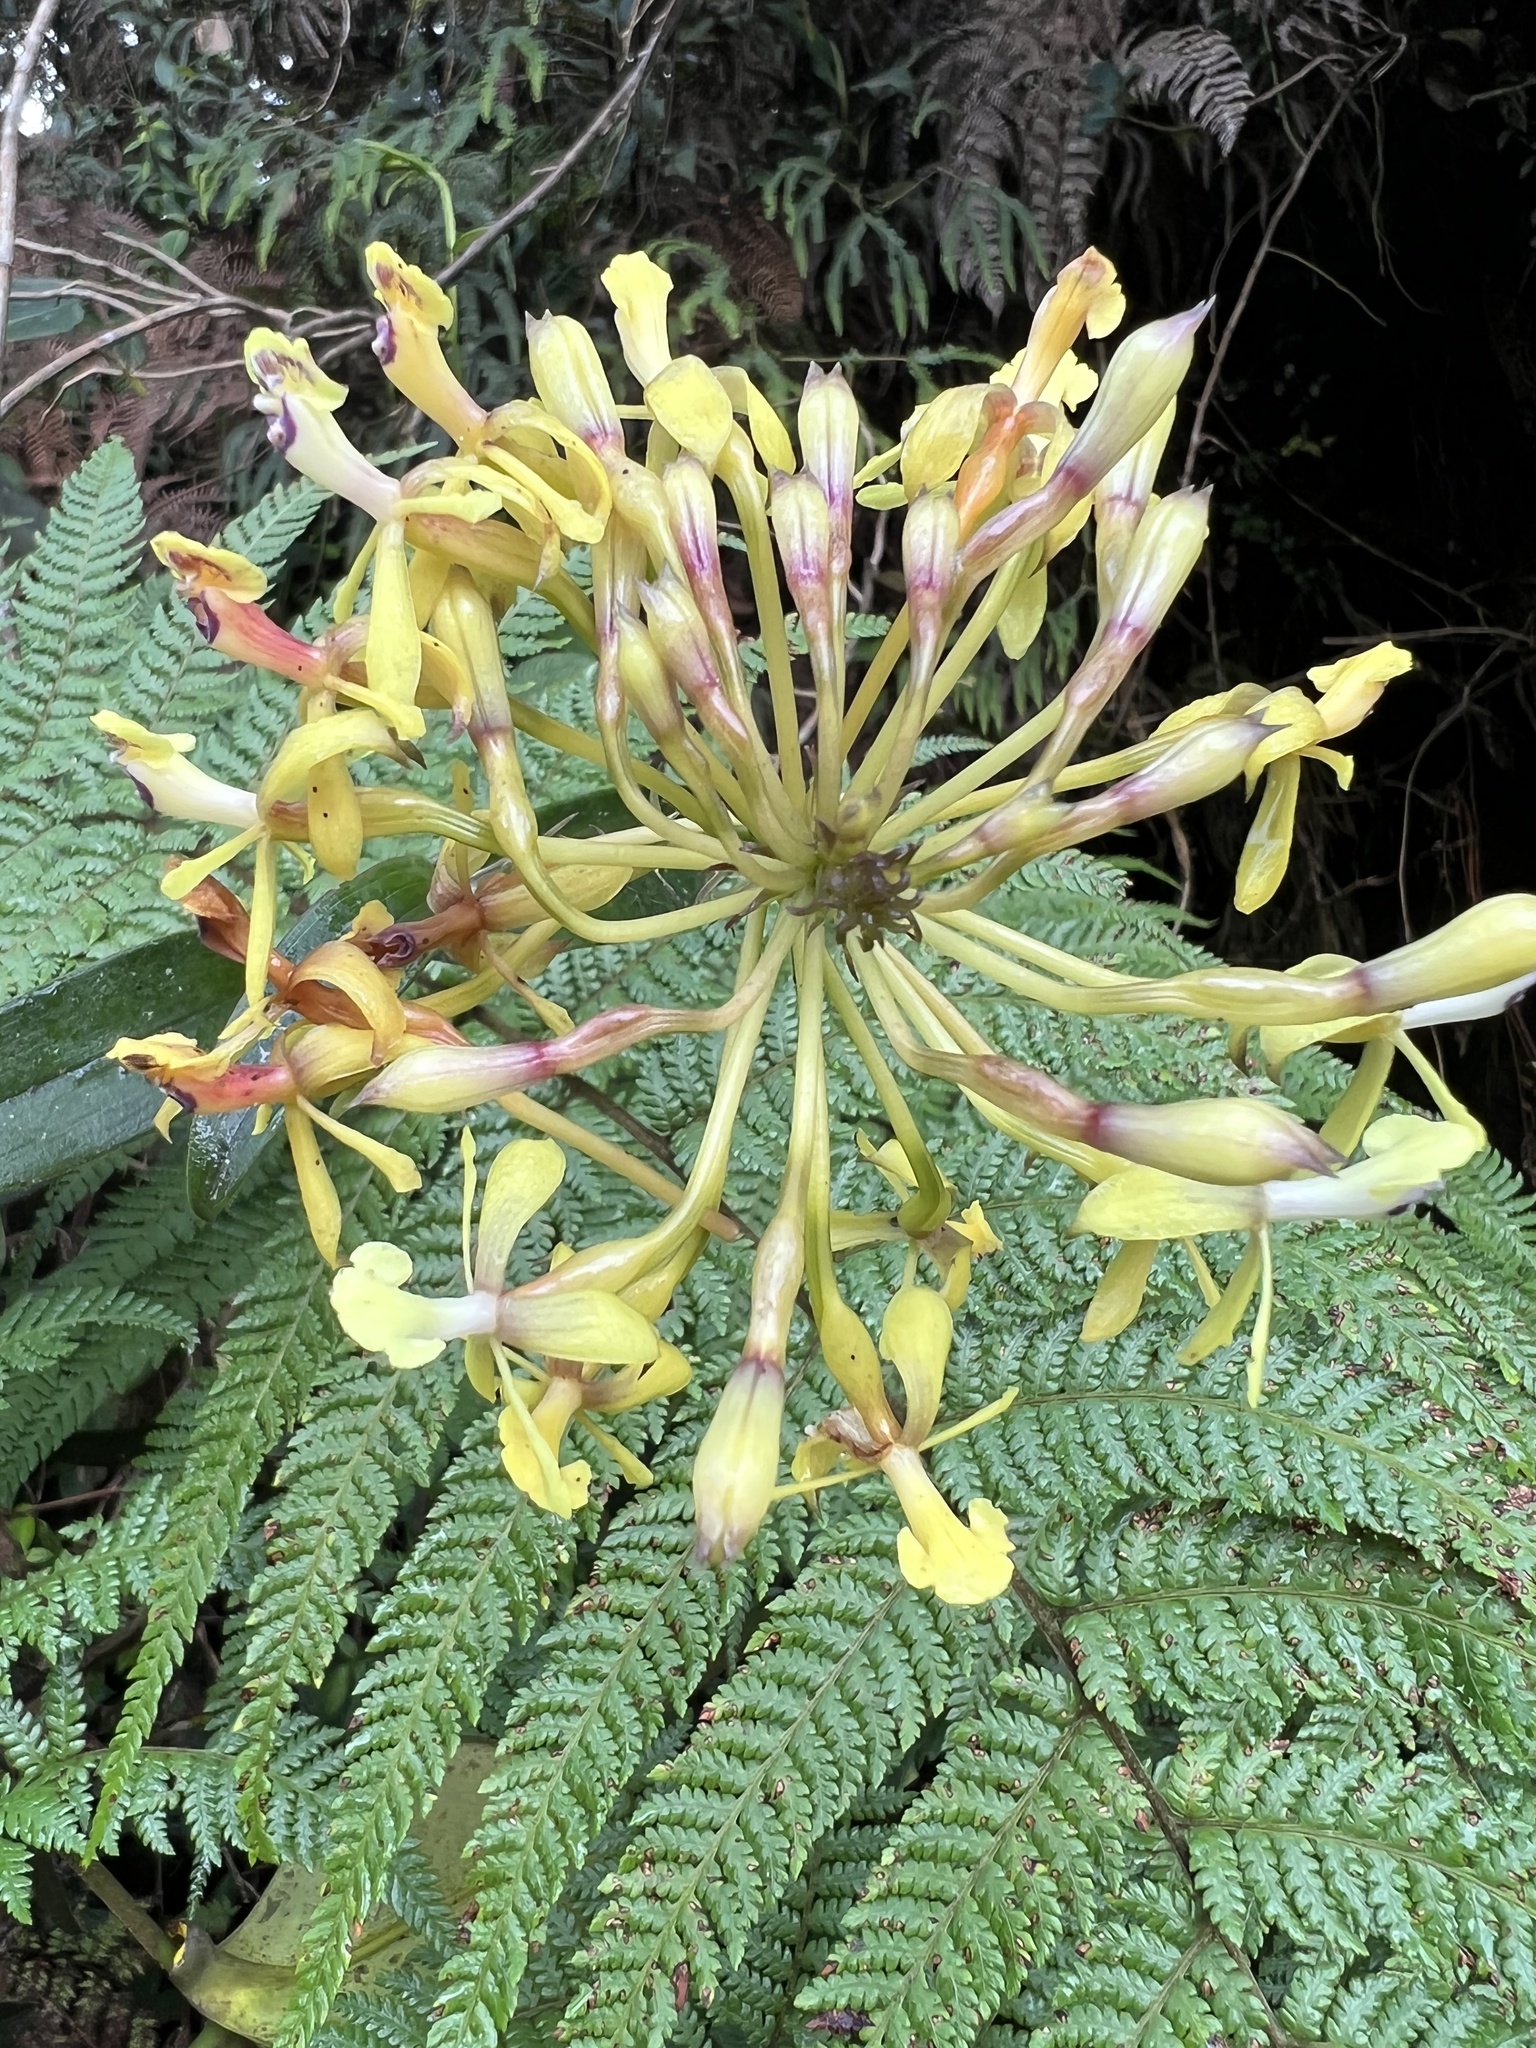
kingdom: Plantae
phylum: Tracheophyta
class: Liliopsida
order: Asparagales
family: Orchidaceae
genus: Epidendrum
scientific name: Epidendrum scytocladium
